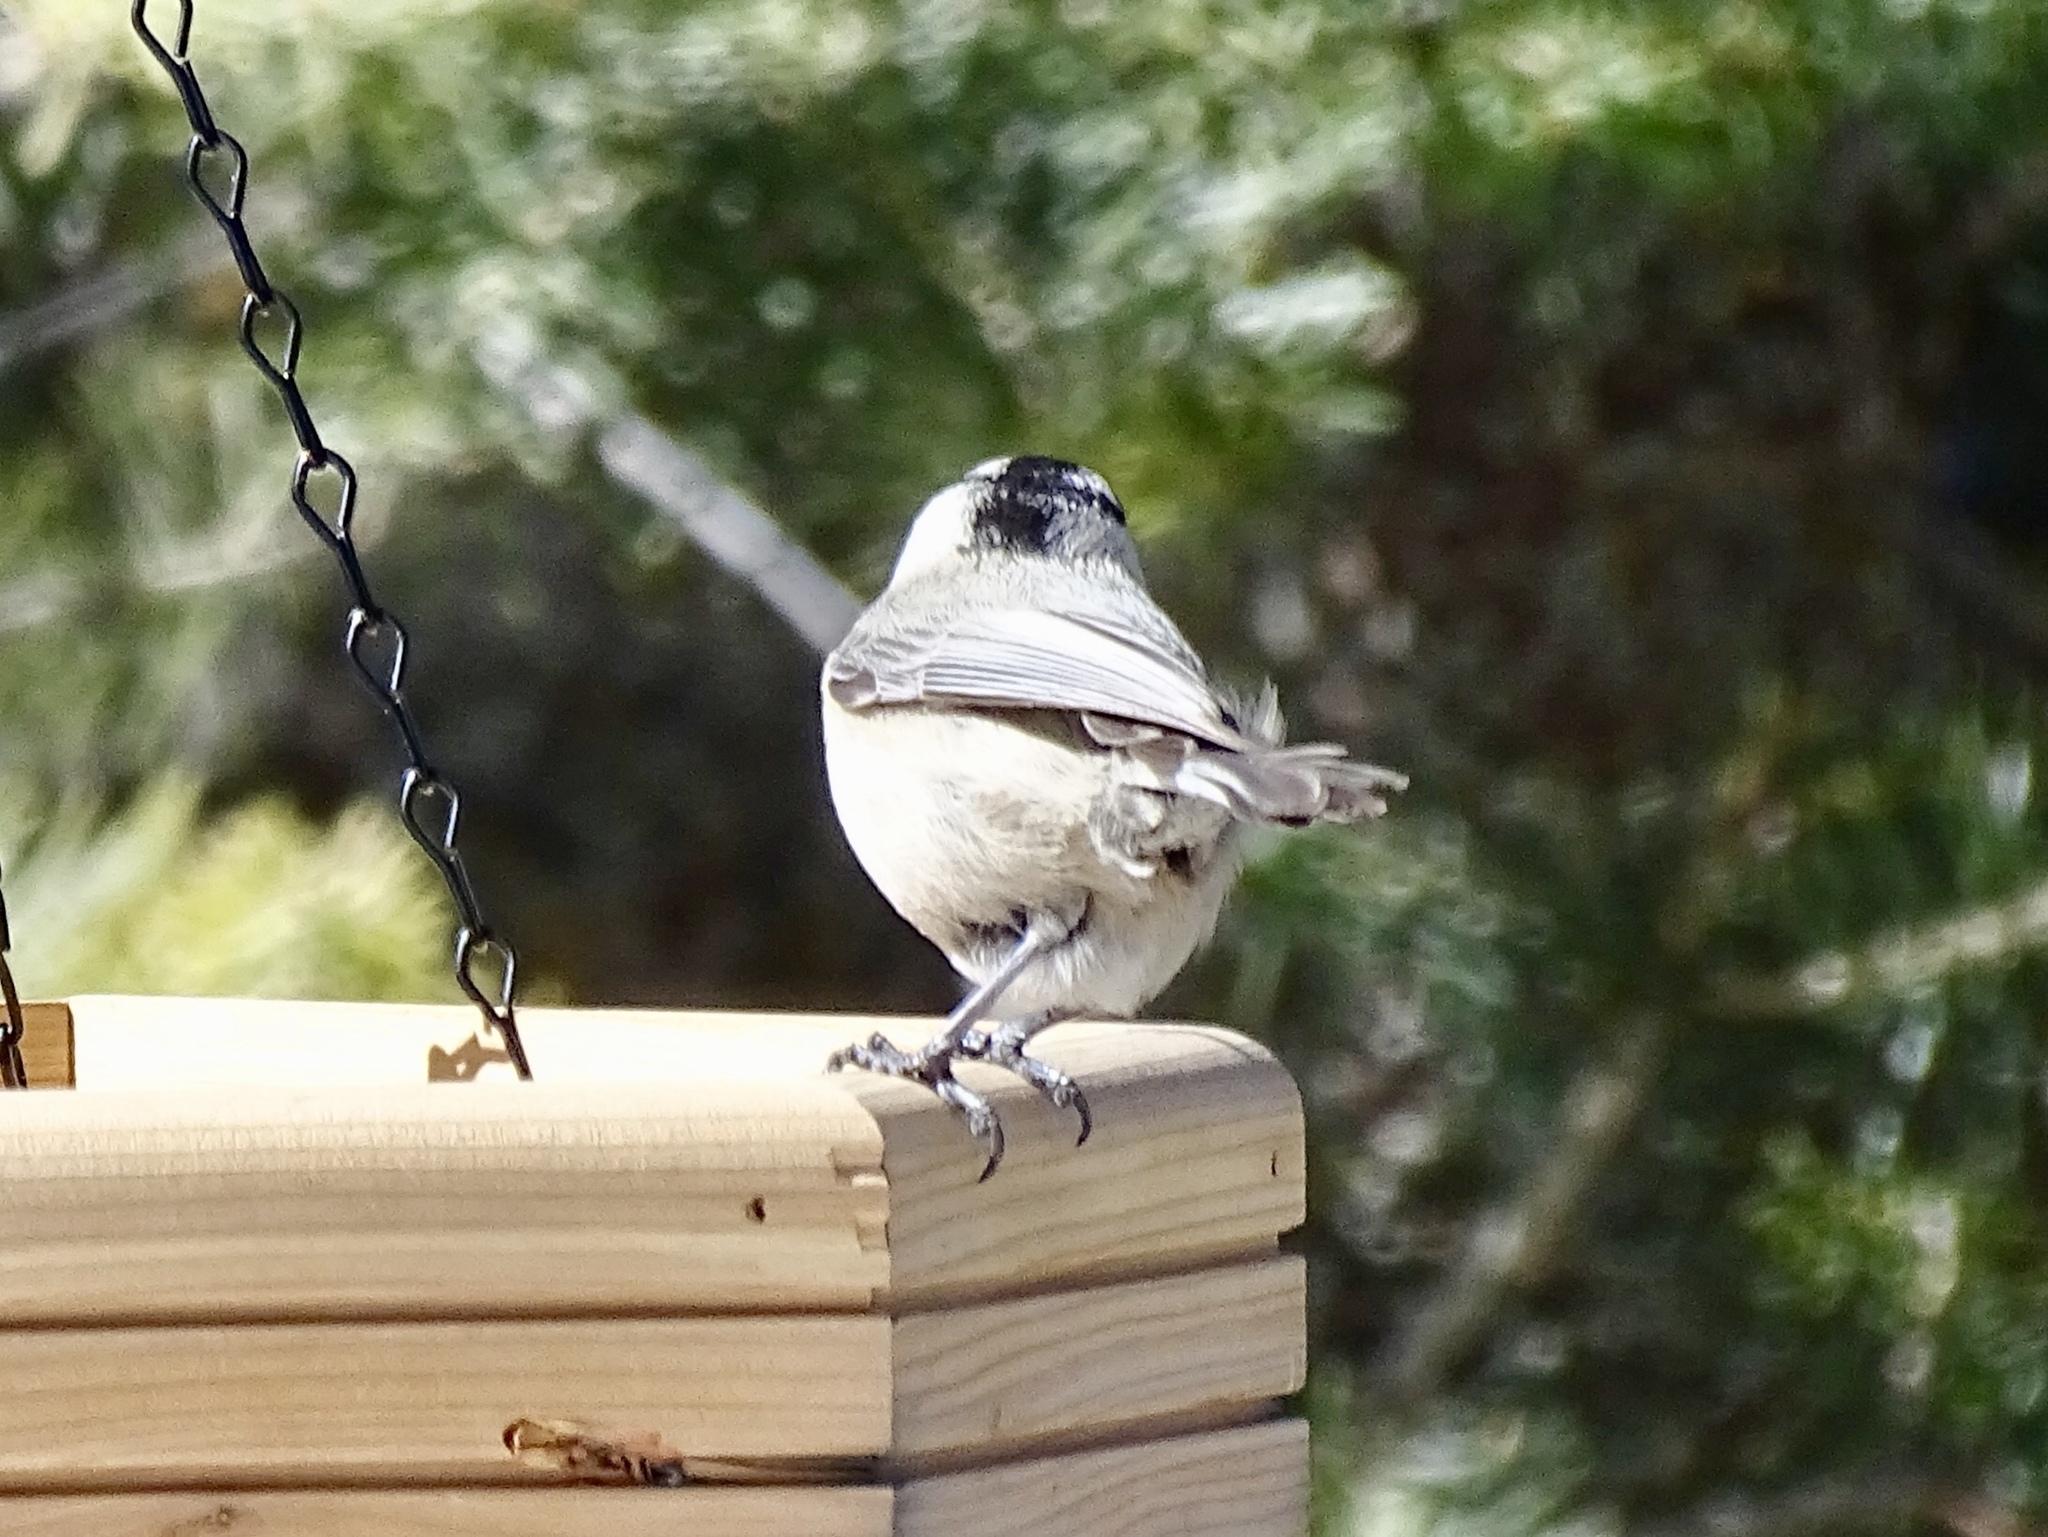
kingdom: Animalia
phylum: Chordata
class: Aves
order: Passeriformes
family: Paridae
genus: Poecile
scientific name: Poecile gambeli
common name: Mountain chickadee
